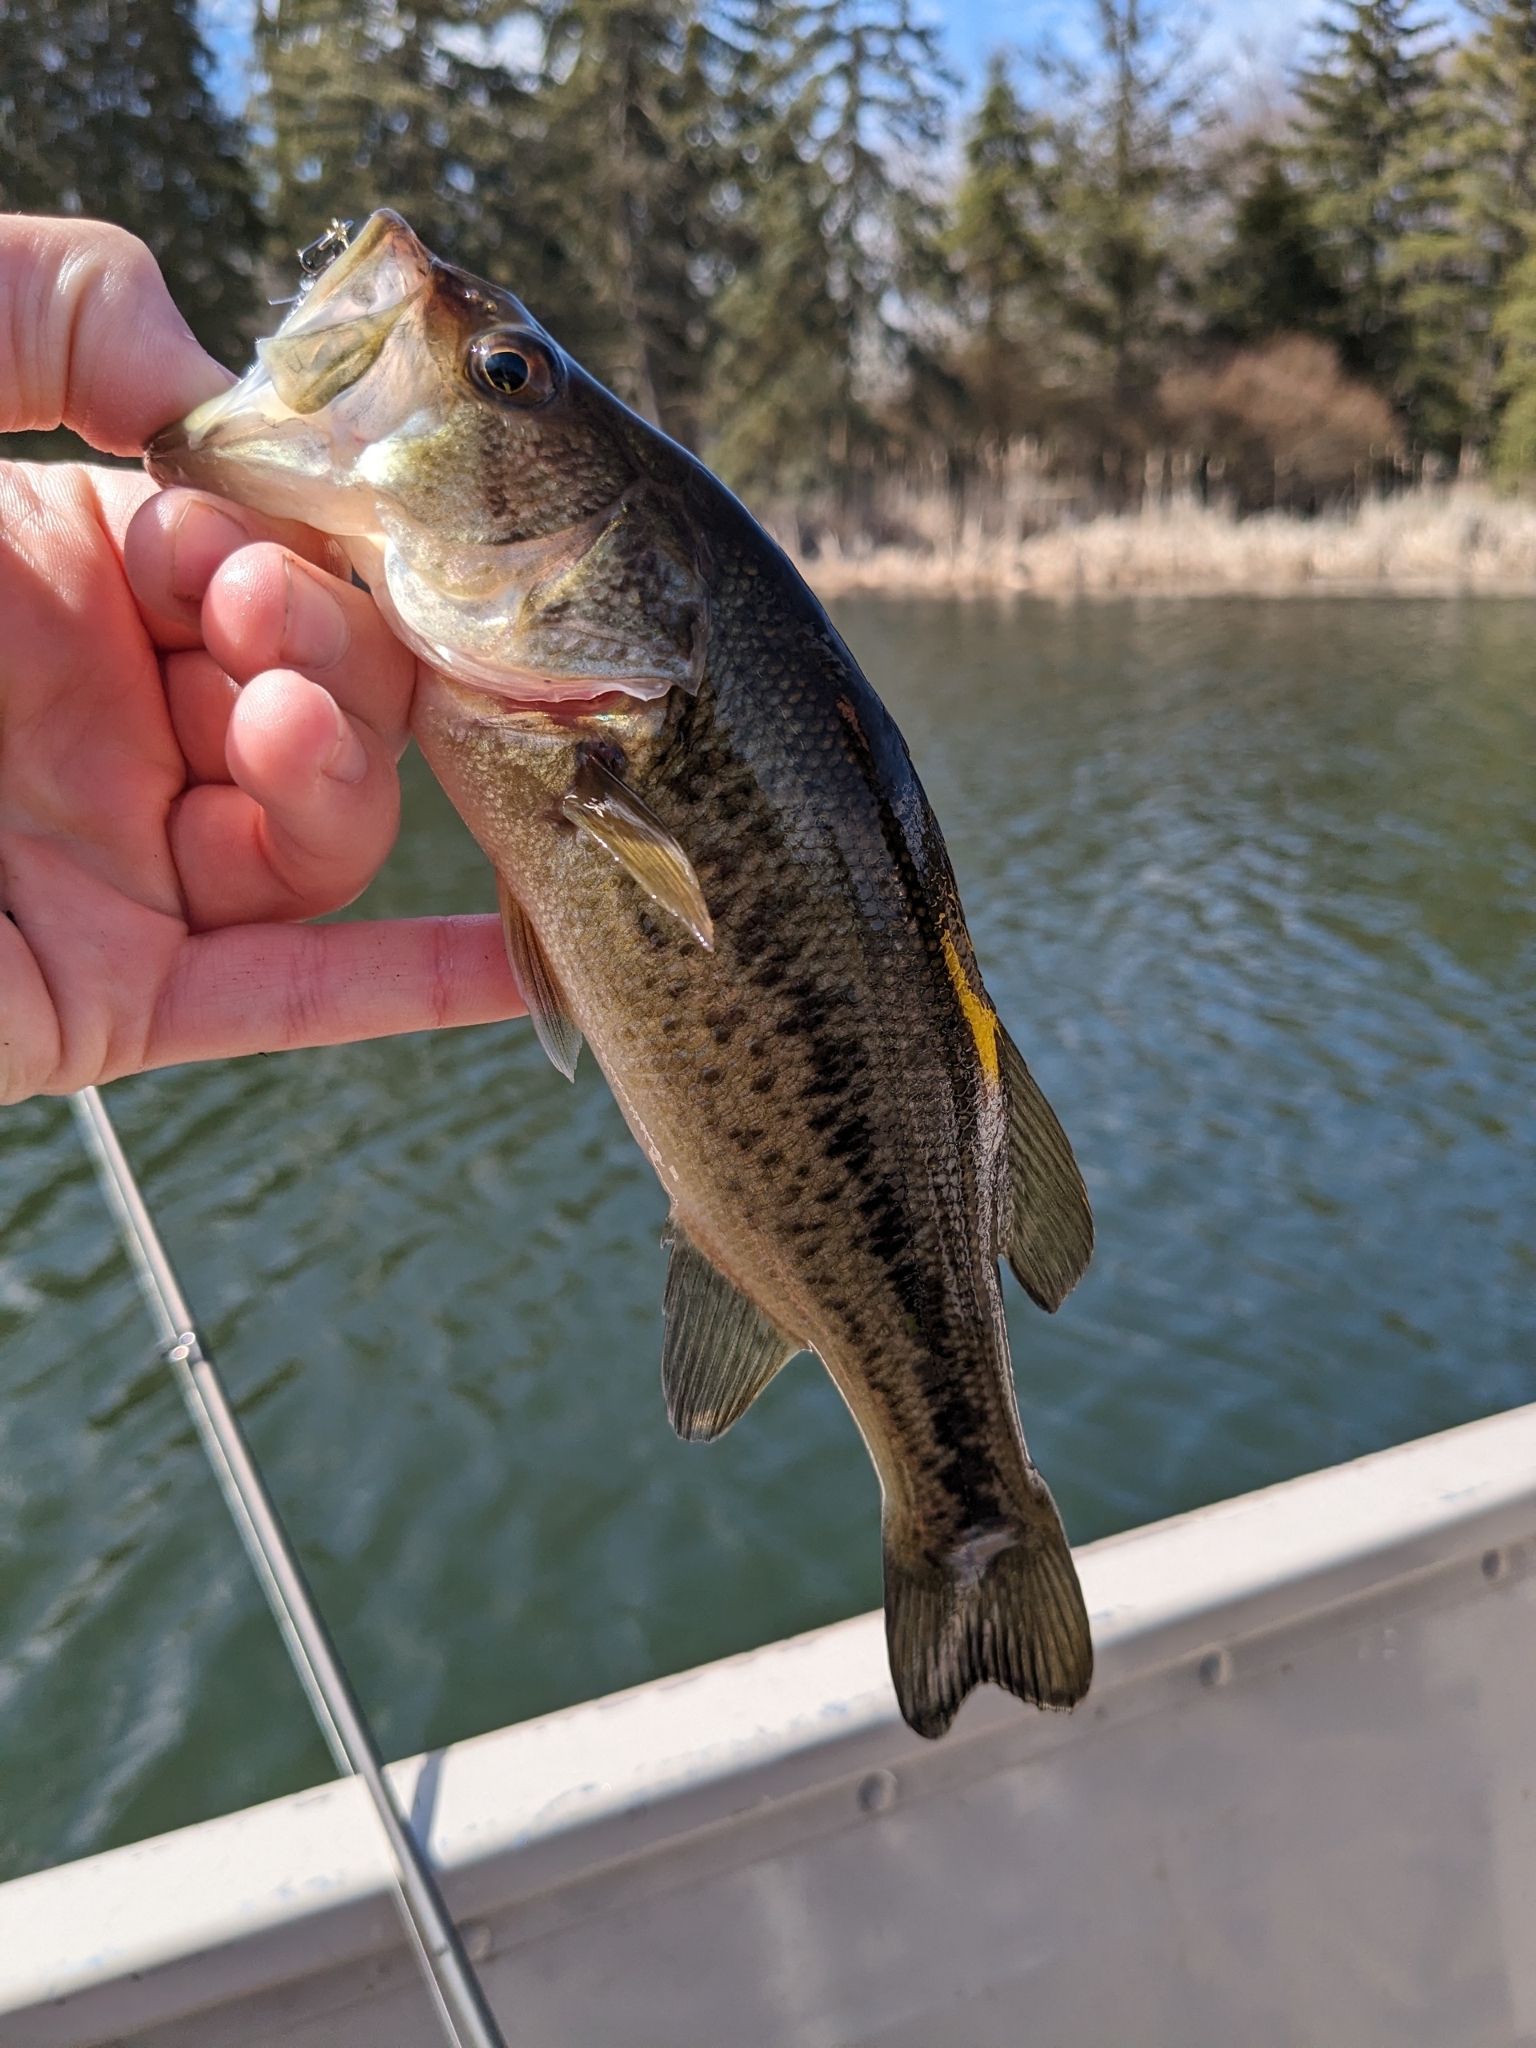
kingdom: Animalia
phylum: Chordata
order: Perciformes
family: Centrarchidae
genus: Micropterus
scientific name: Micropterus
